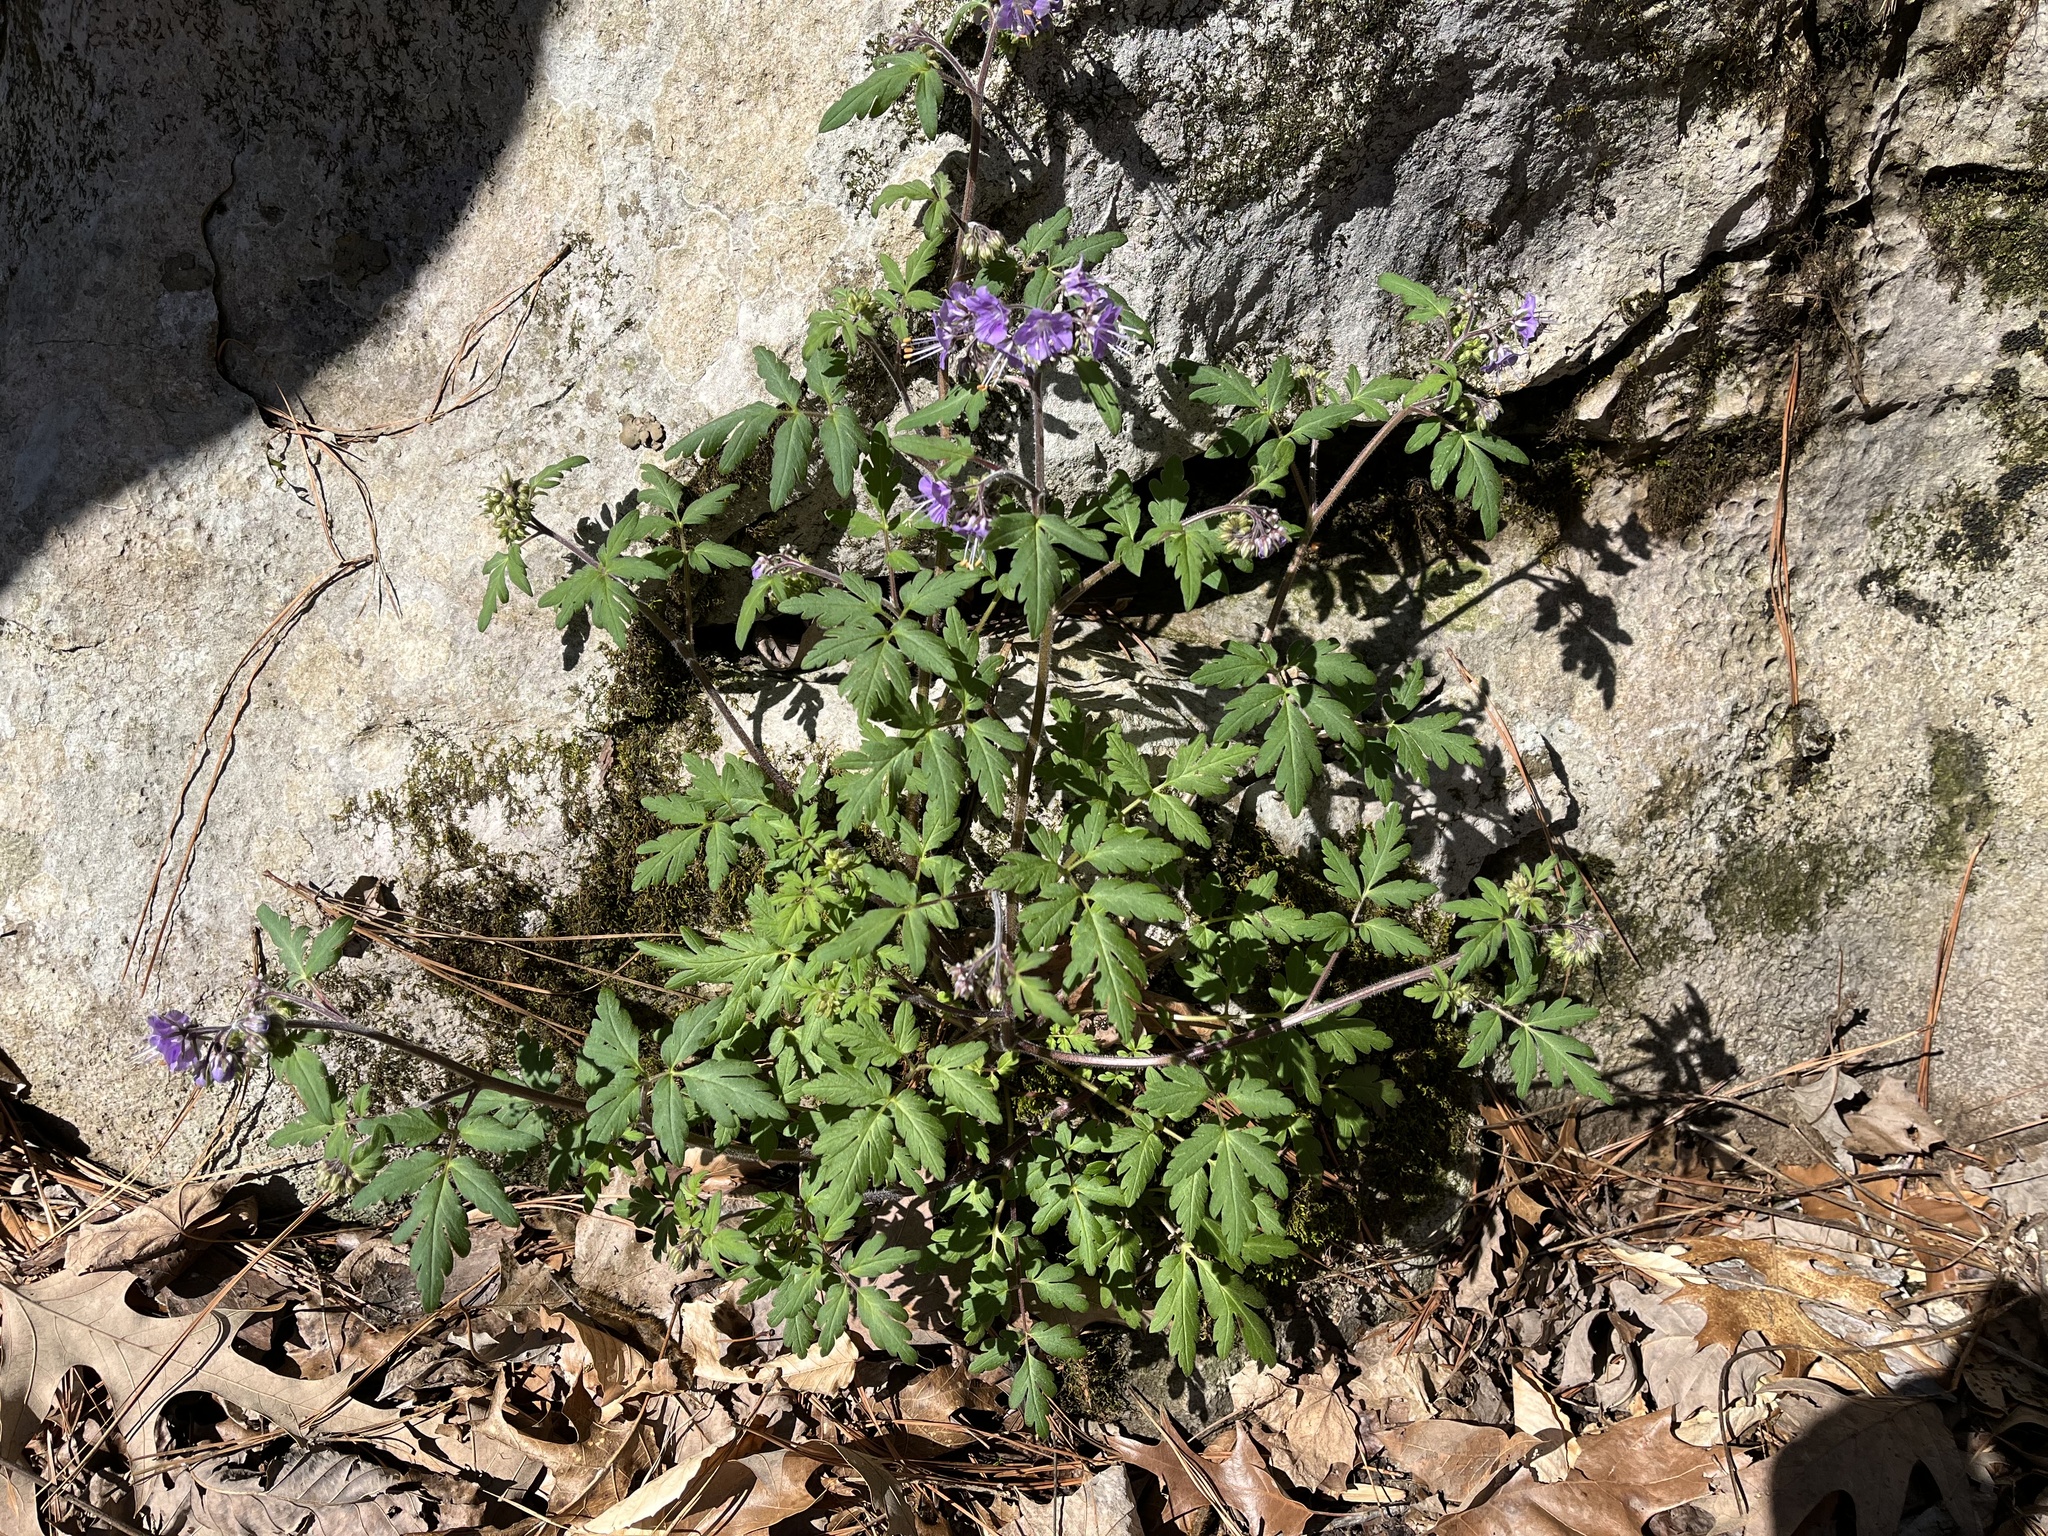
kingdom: Plantae
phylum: Tracheophyta
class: Magnoliopsida
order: Boraginales
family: Hydrophyllaceae
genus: Phacelia
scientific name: Phacelia bipinnatifida
